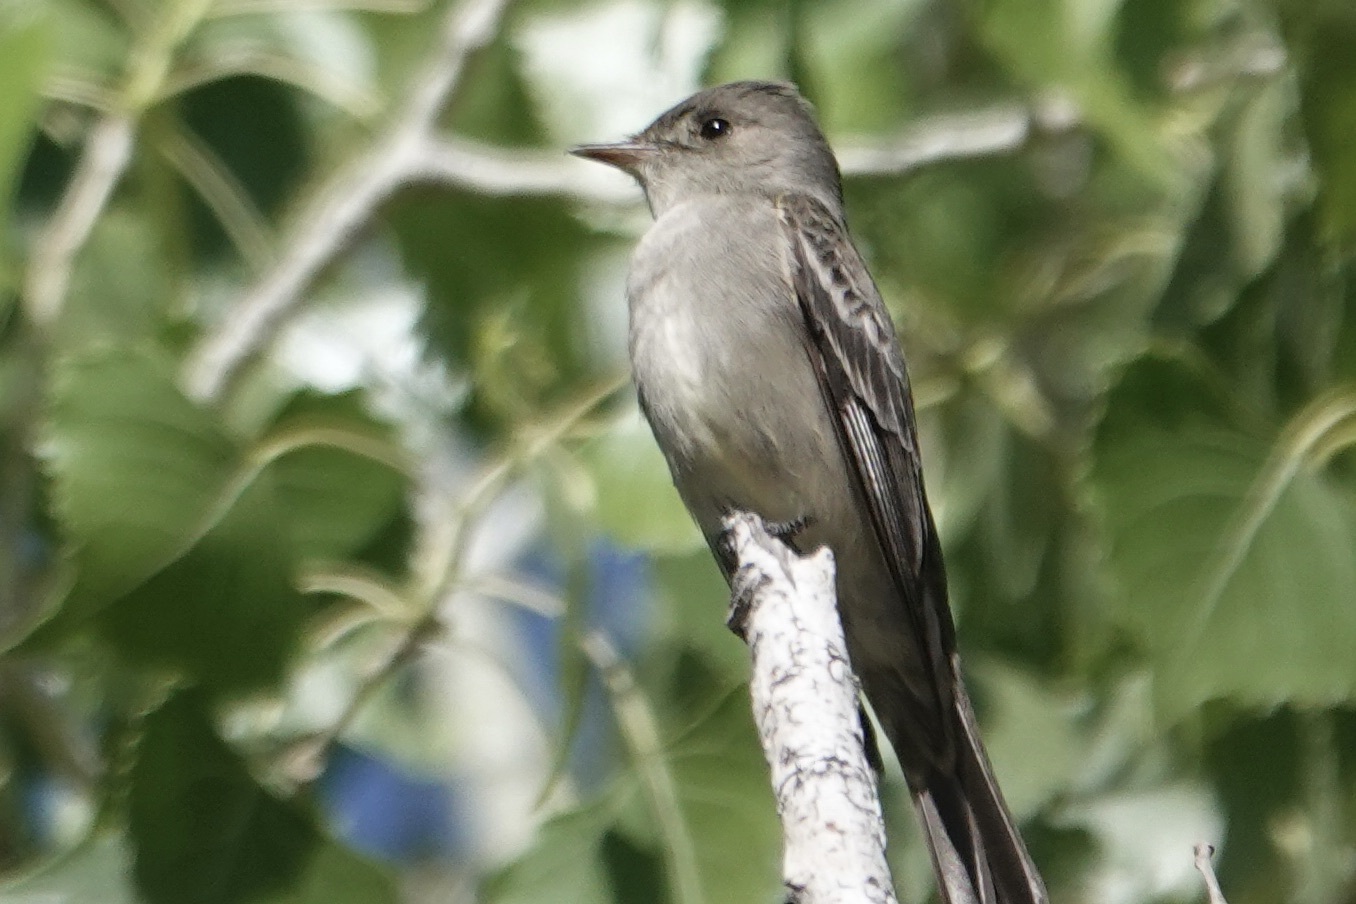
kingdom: Animalia
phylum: Chordata
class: Aves
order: Passeriformes
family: Tyrannidae
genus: Contopus
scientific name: Contopus sordidulus
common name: Western wood-pewee
